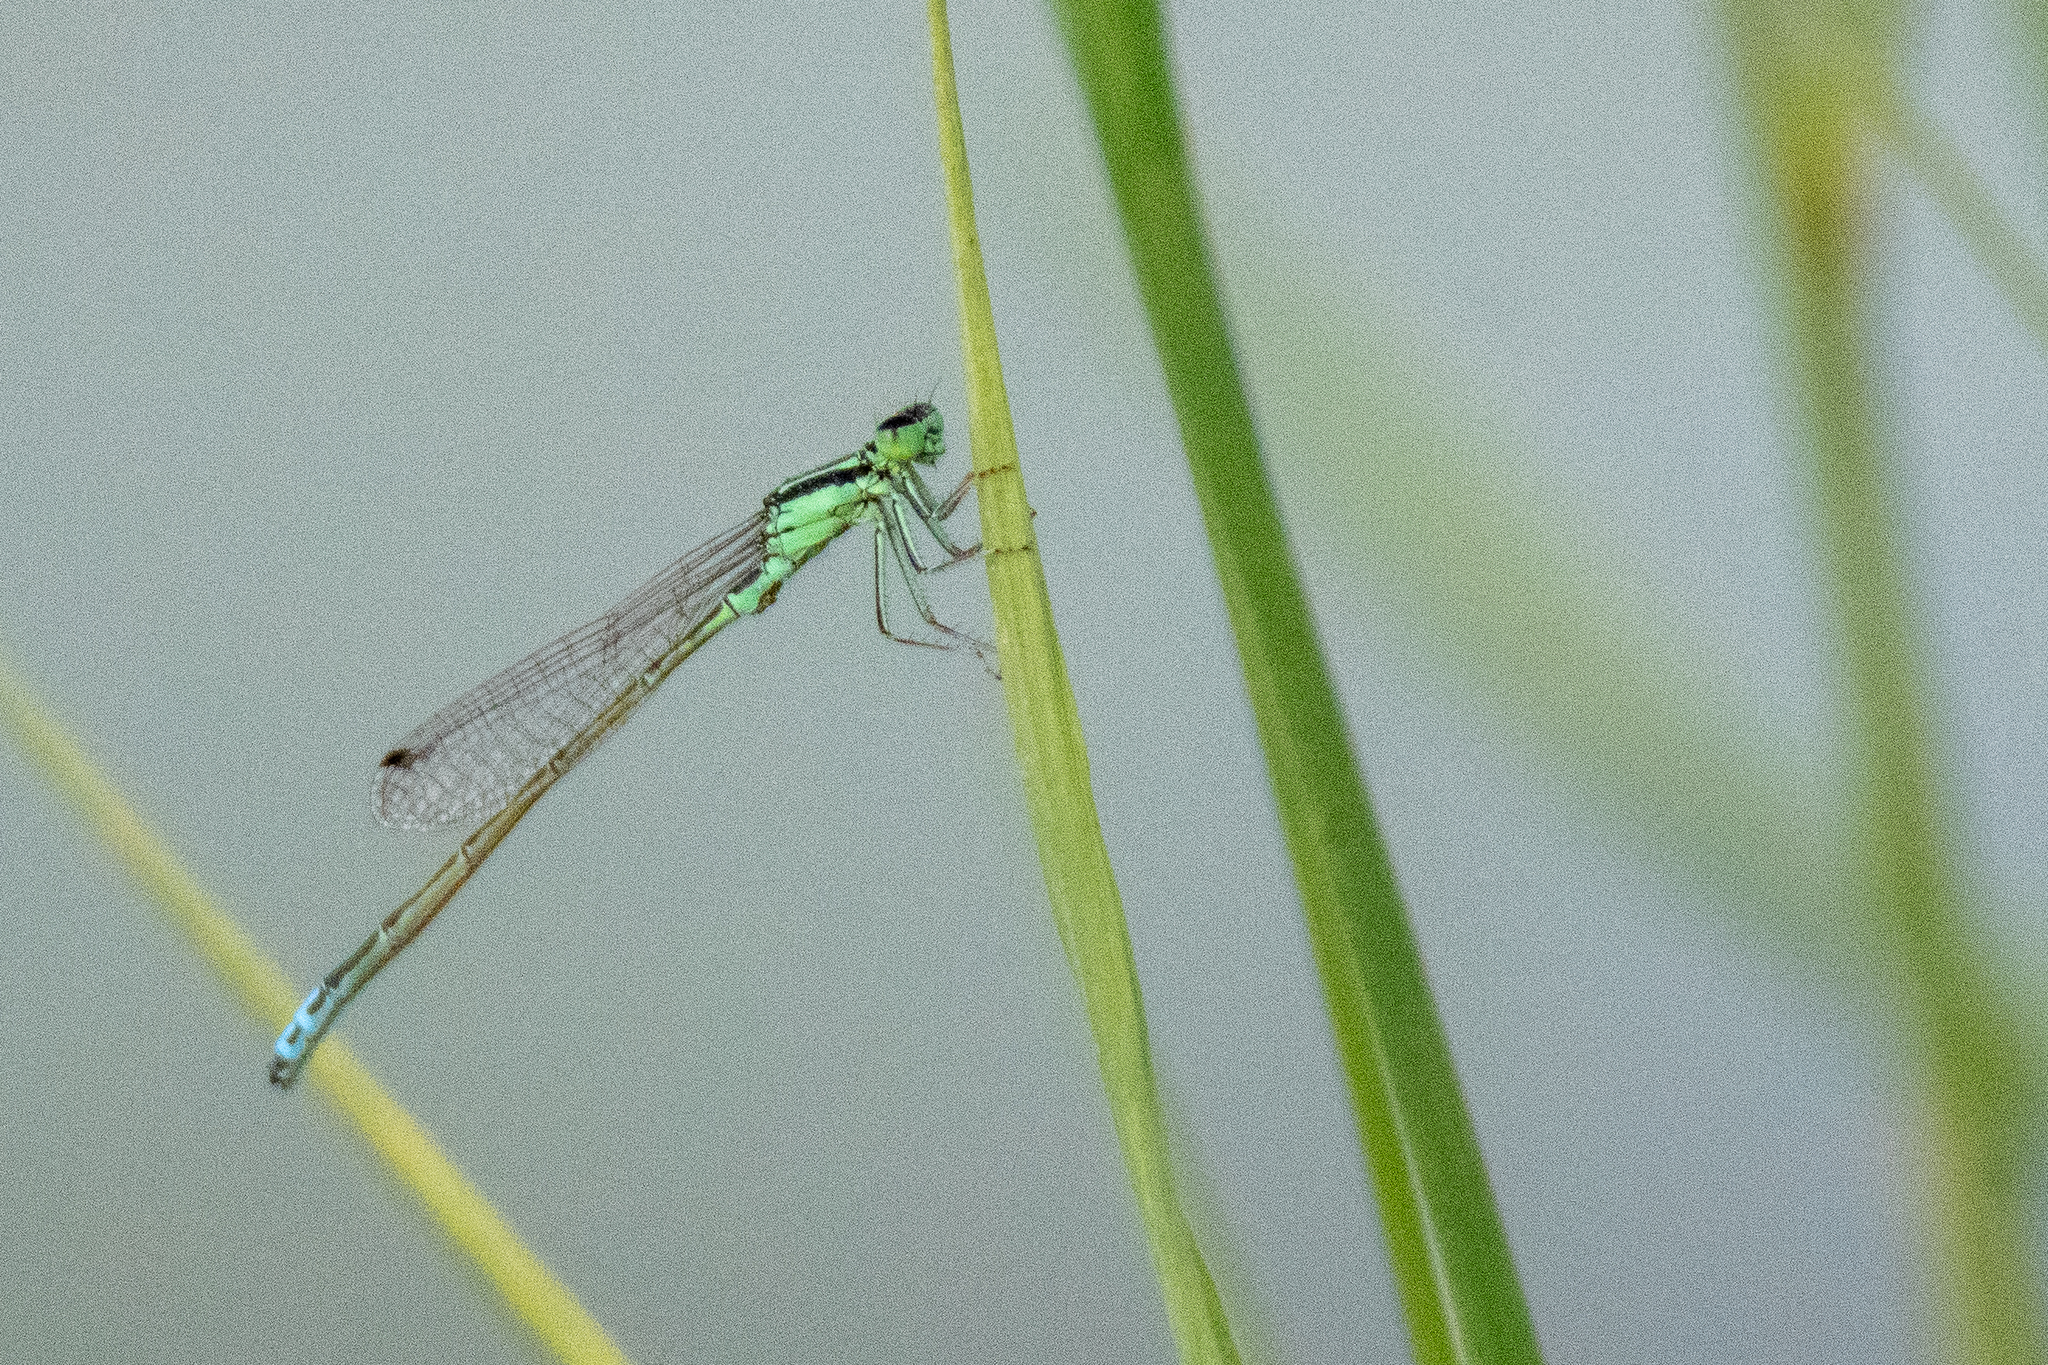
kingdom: Animalia
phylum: Arthropoda
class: Insecta
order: Odonata
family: Coenagrionidae
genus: Ischnura
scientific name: Ischnura verticalis
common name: Eastern forktail
